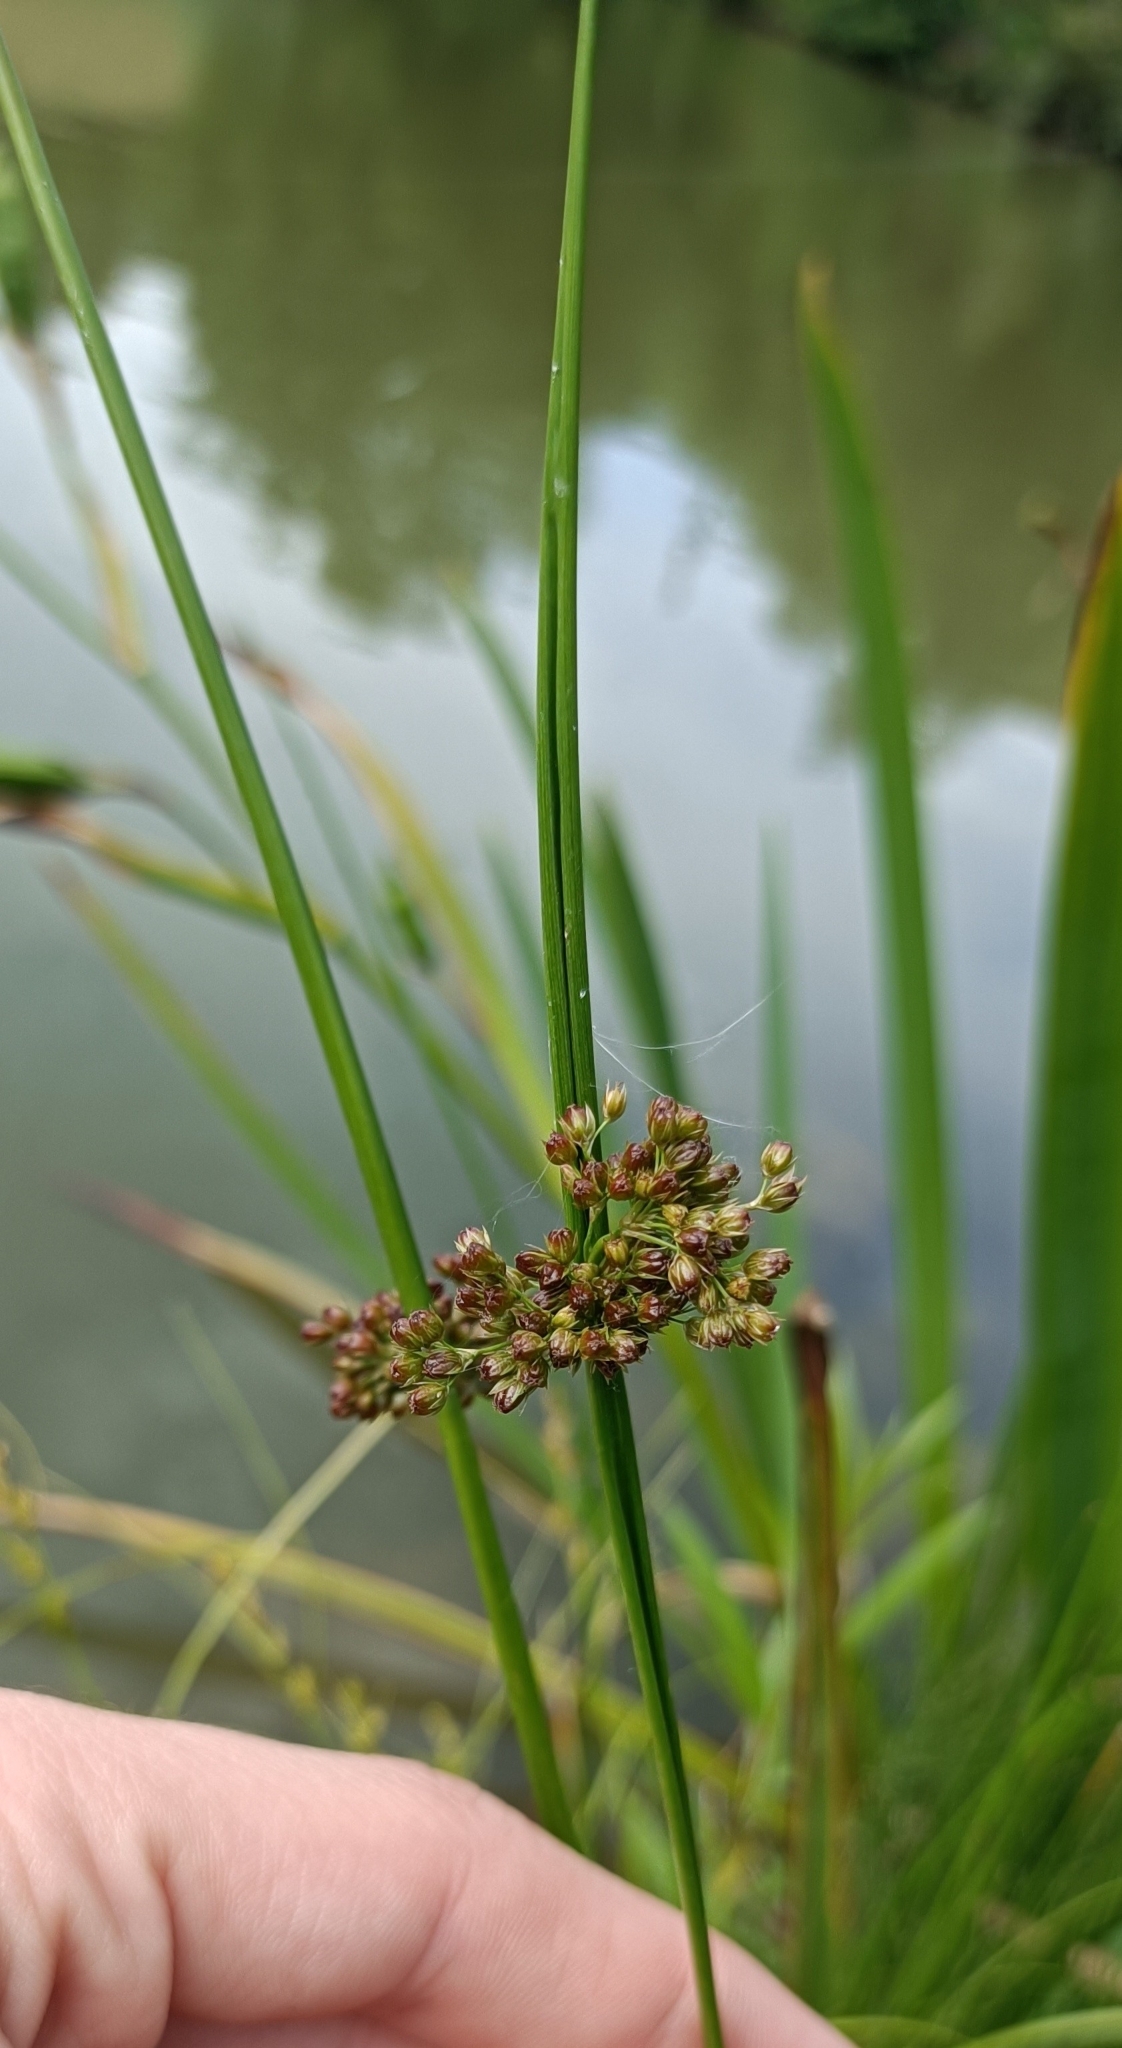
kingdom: Plantae
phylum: Tracheophyta
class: Liliopsida
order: Poales
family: Juncaceae
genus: Juncus
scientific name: Juncus effusus
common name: Soft rush
